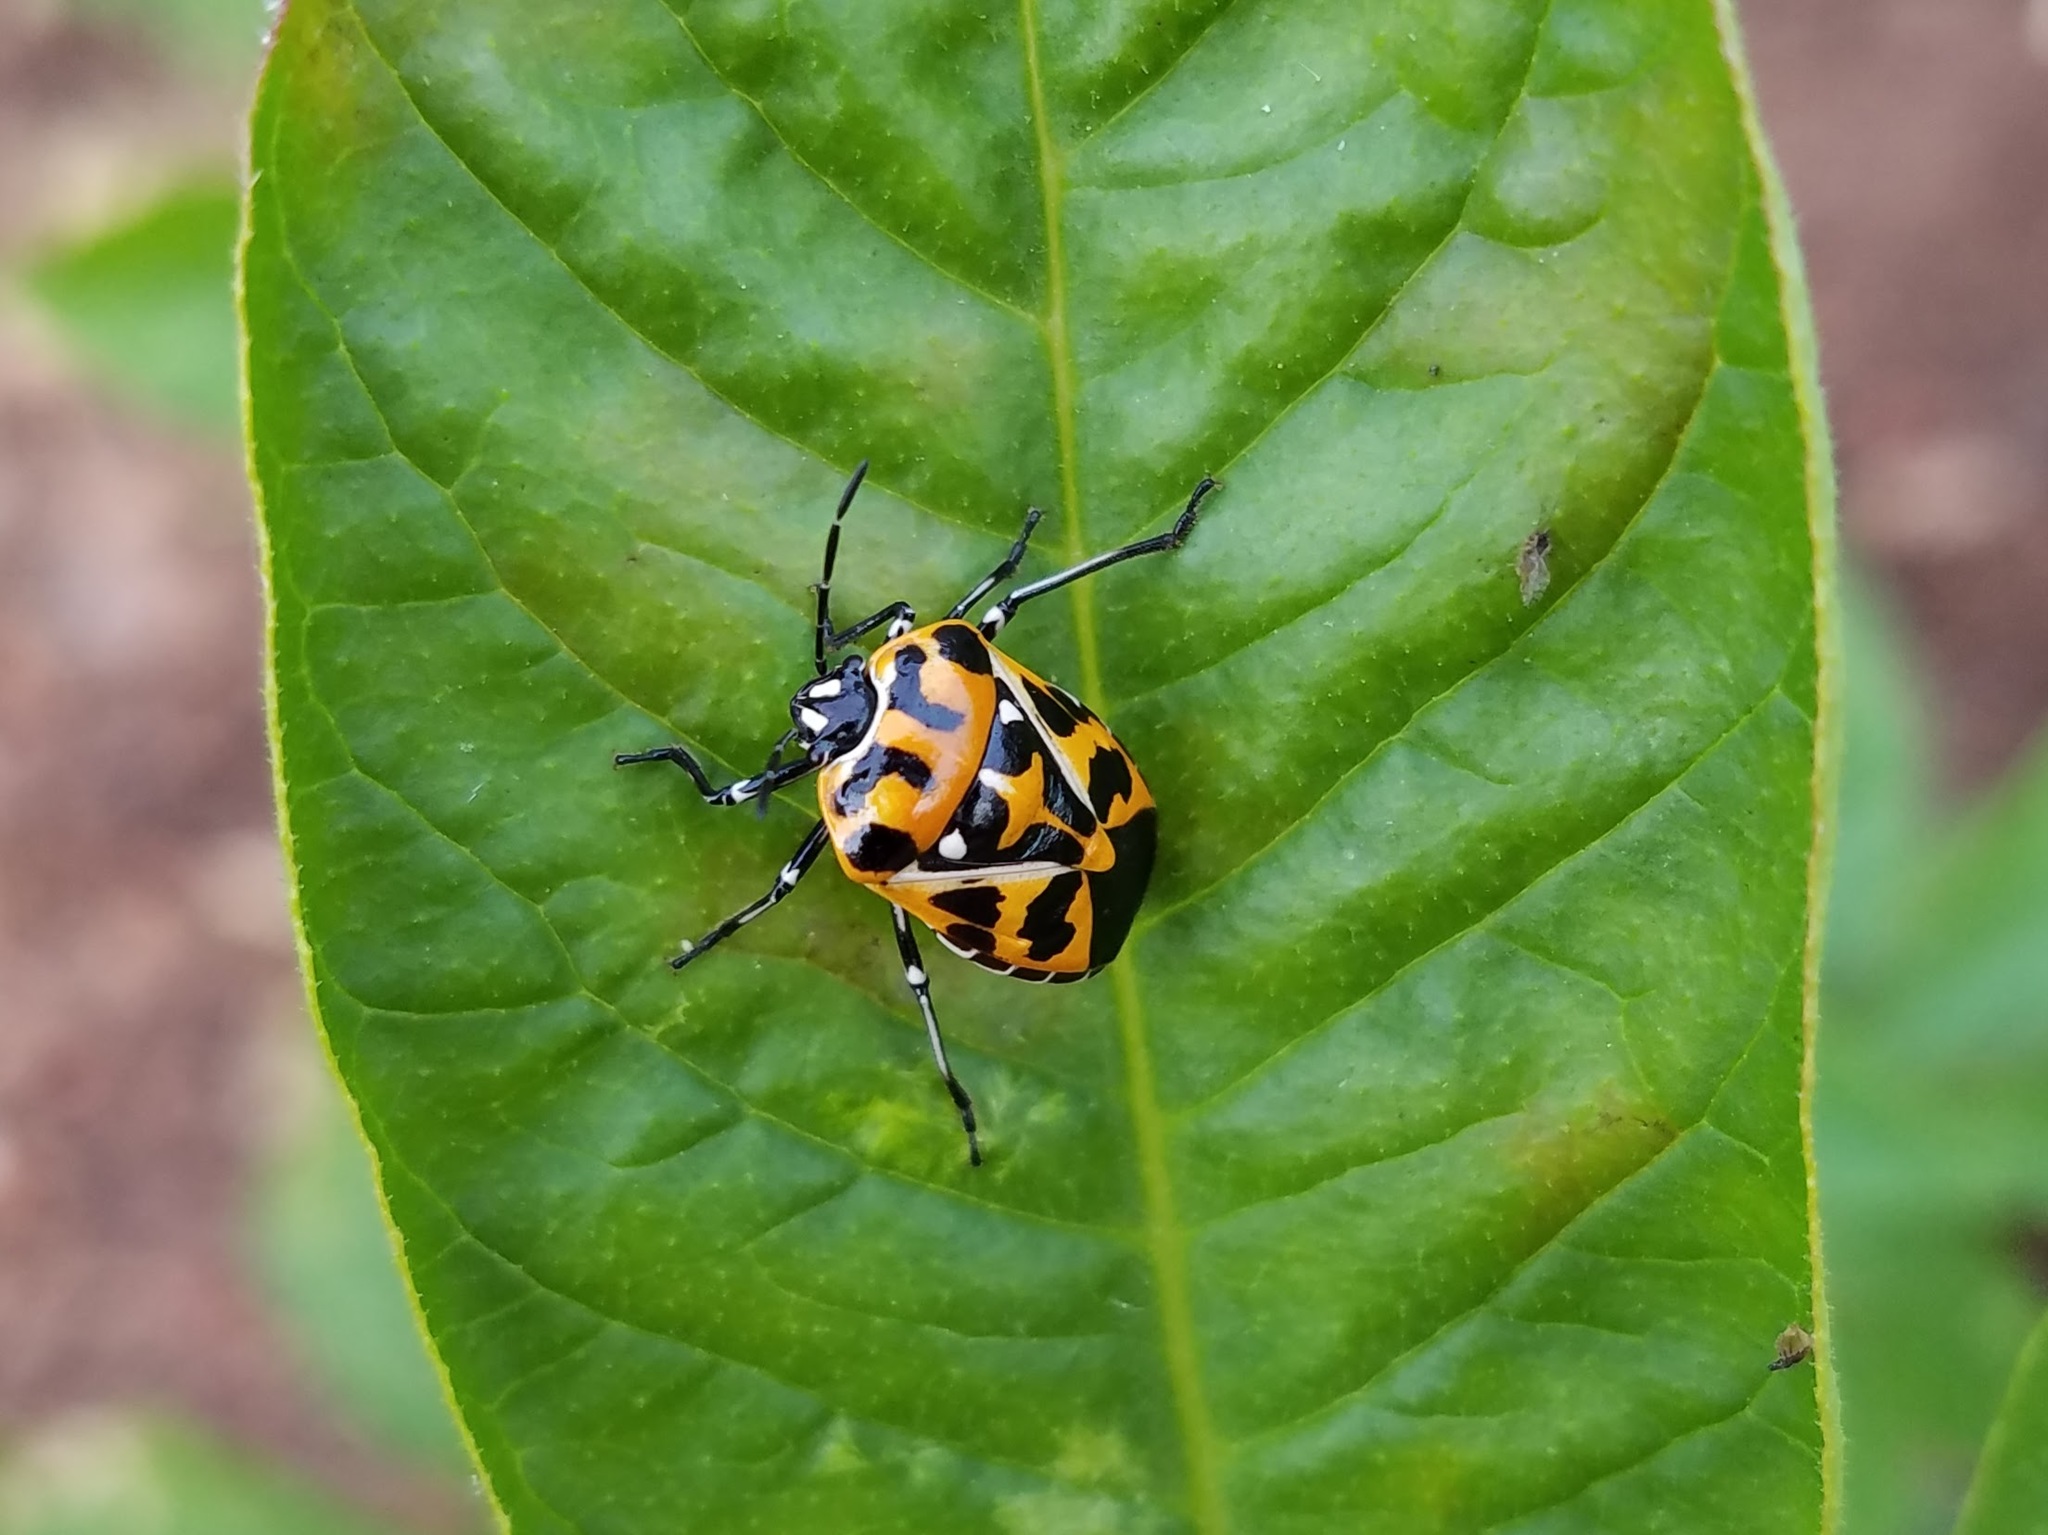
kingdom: Animalia
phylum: Arthropoda
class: Insecta
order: Hemiptera
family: Pentatomidae
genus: Murgantia
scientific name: Murgantia histrionica
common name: Harlequin bug
